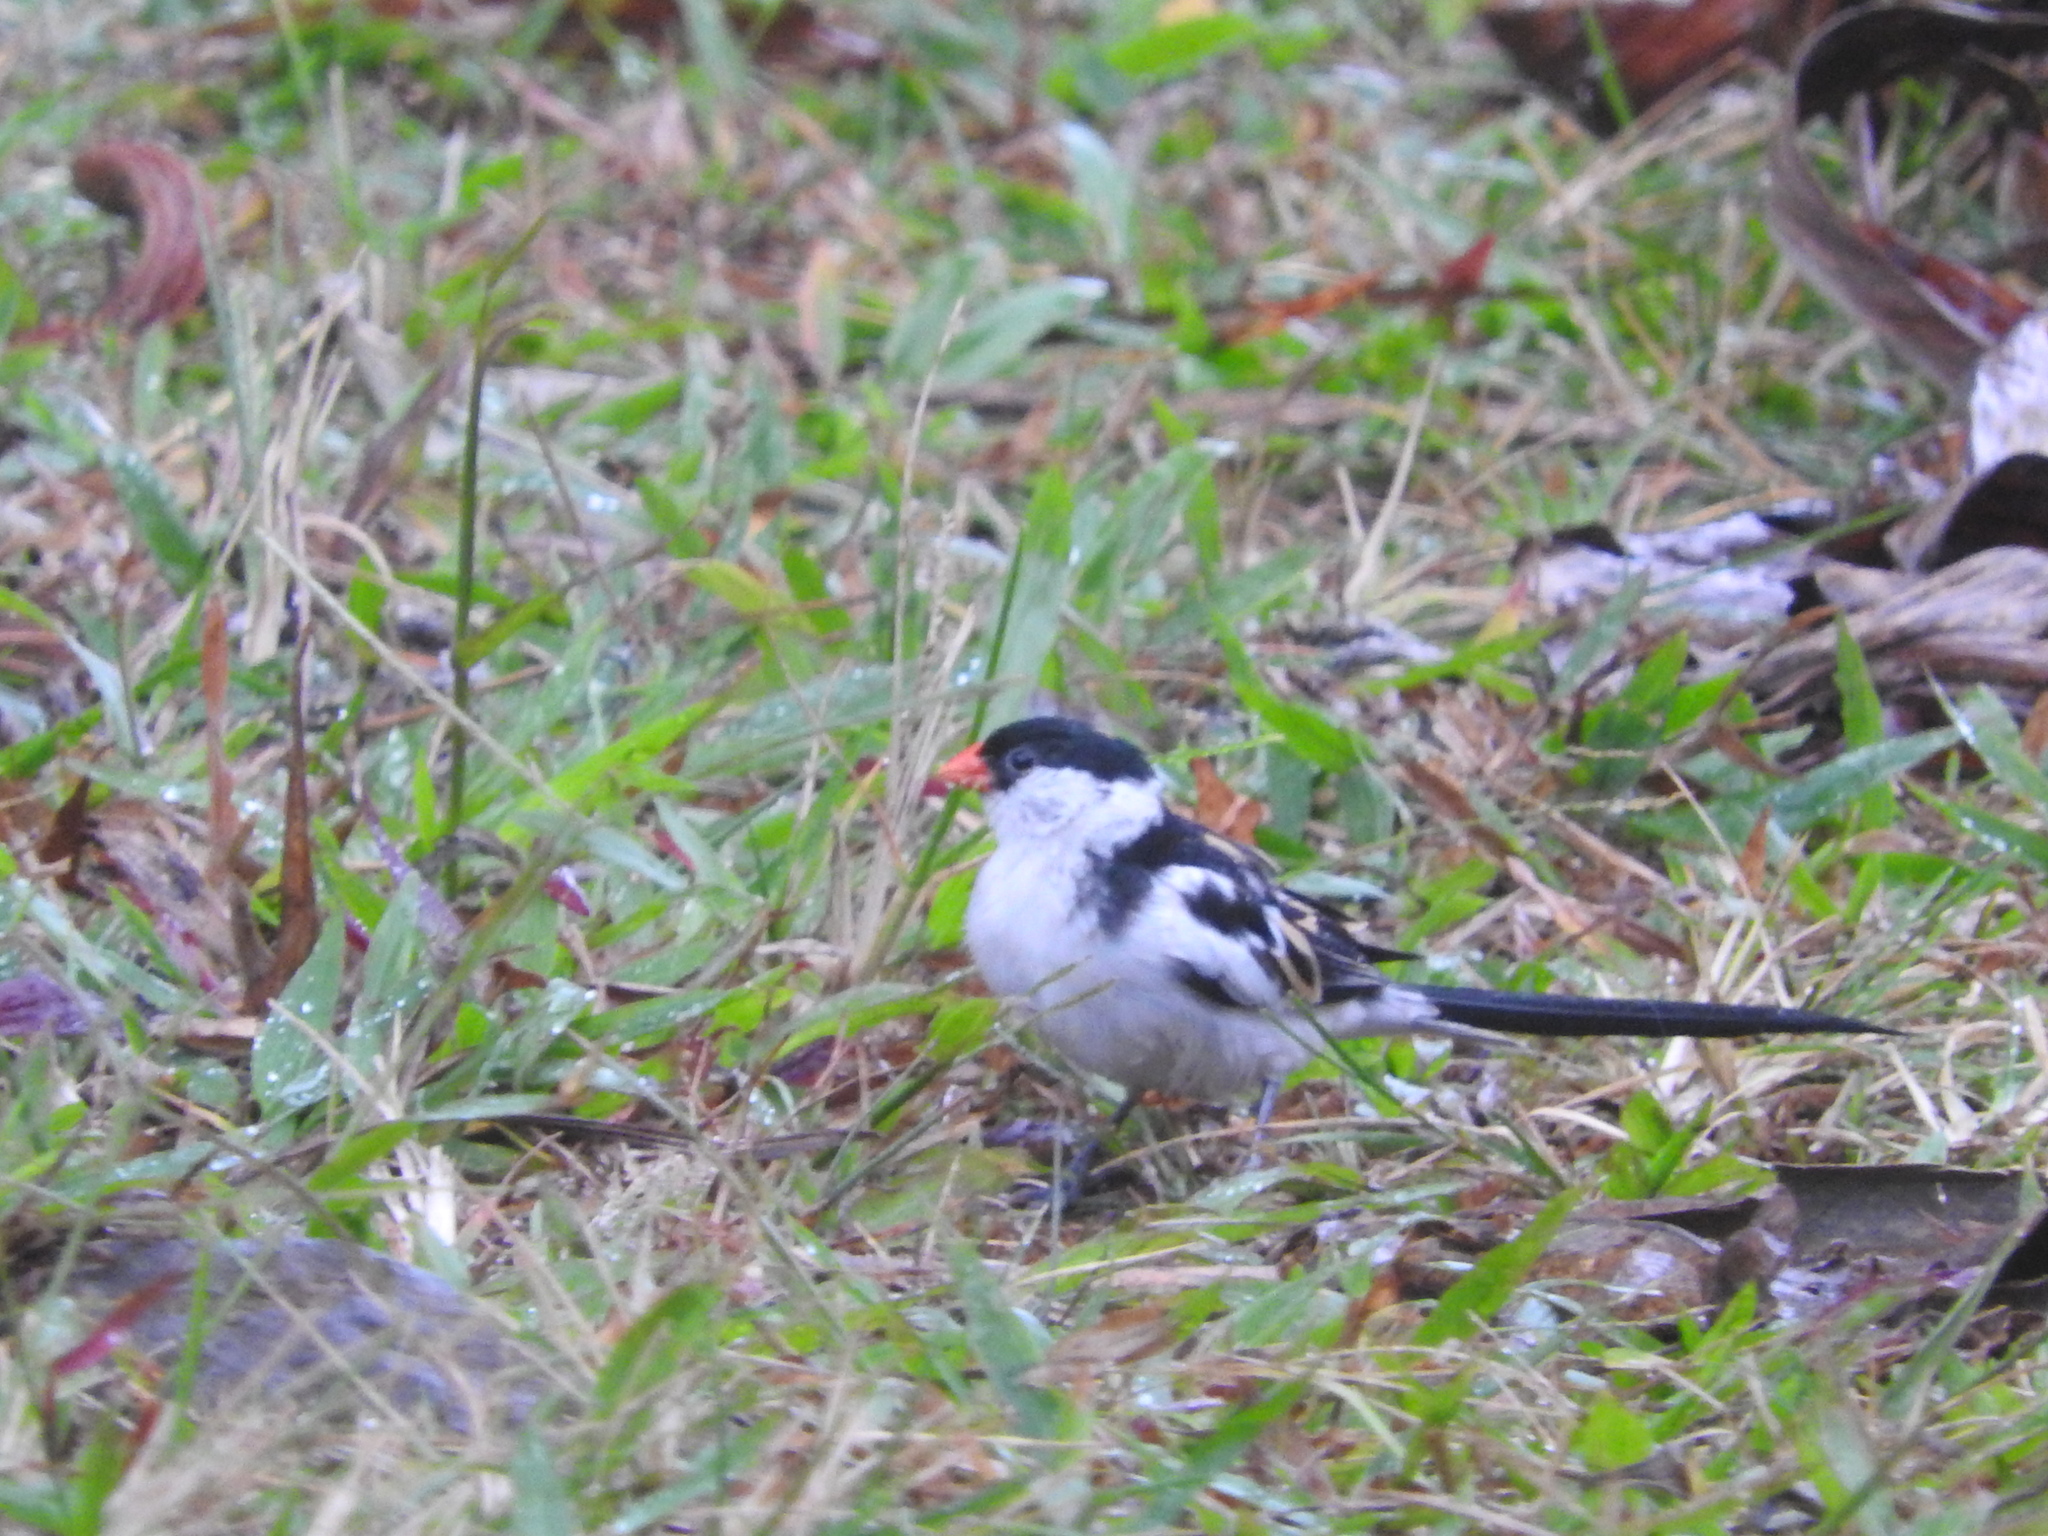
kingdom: Animalia
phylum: Chordata
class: Aves
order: Passeriformes
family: Viduidae
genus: Vidua
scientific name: Vidua macroura
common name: Pin-tailed whydah
